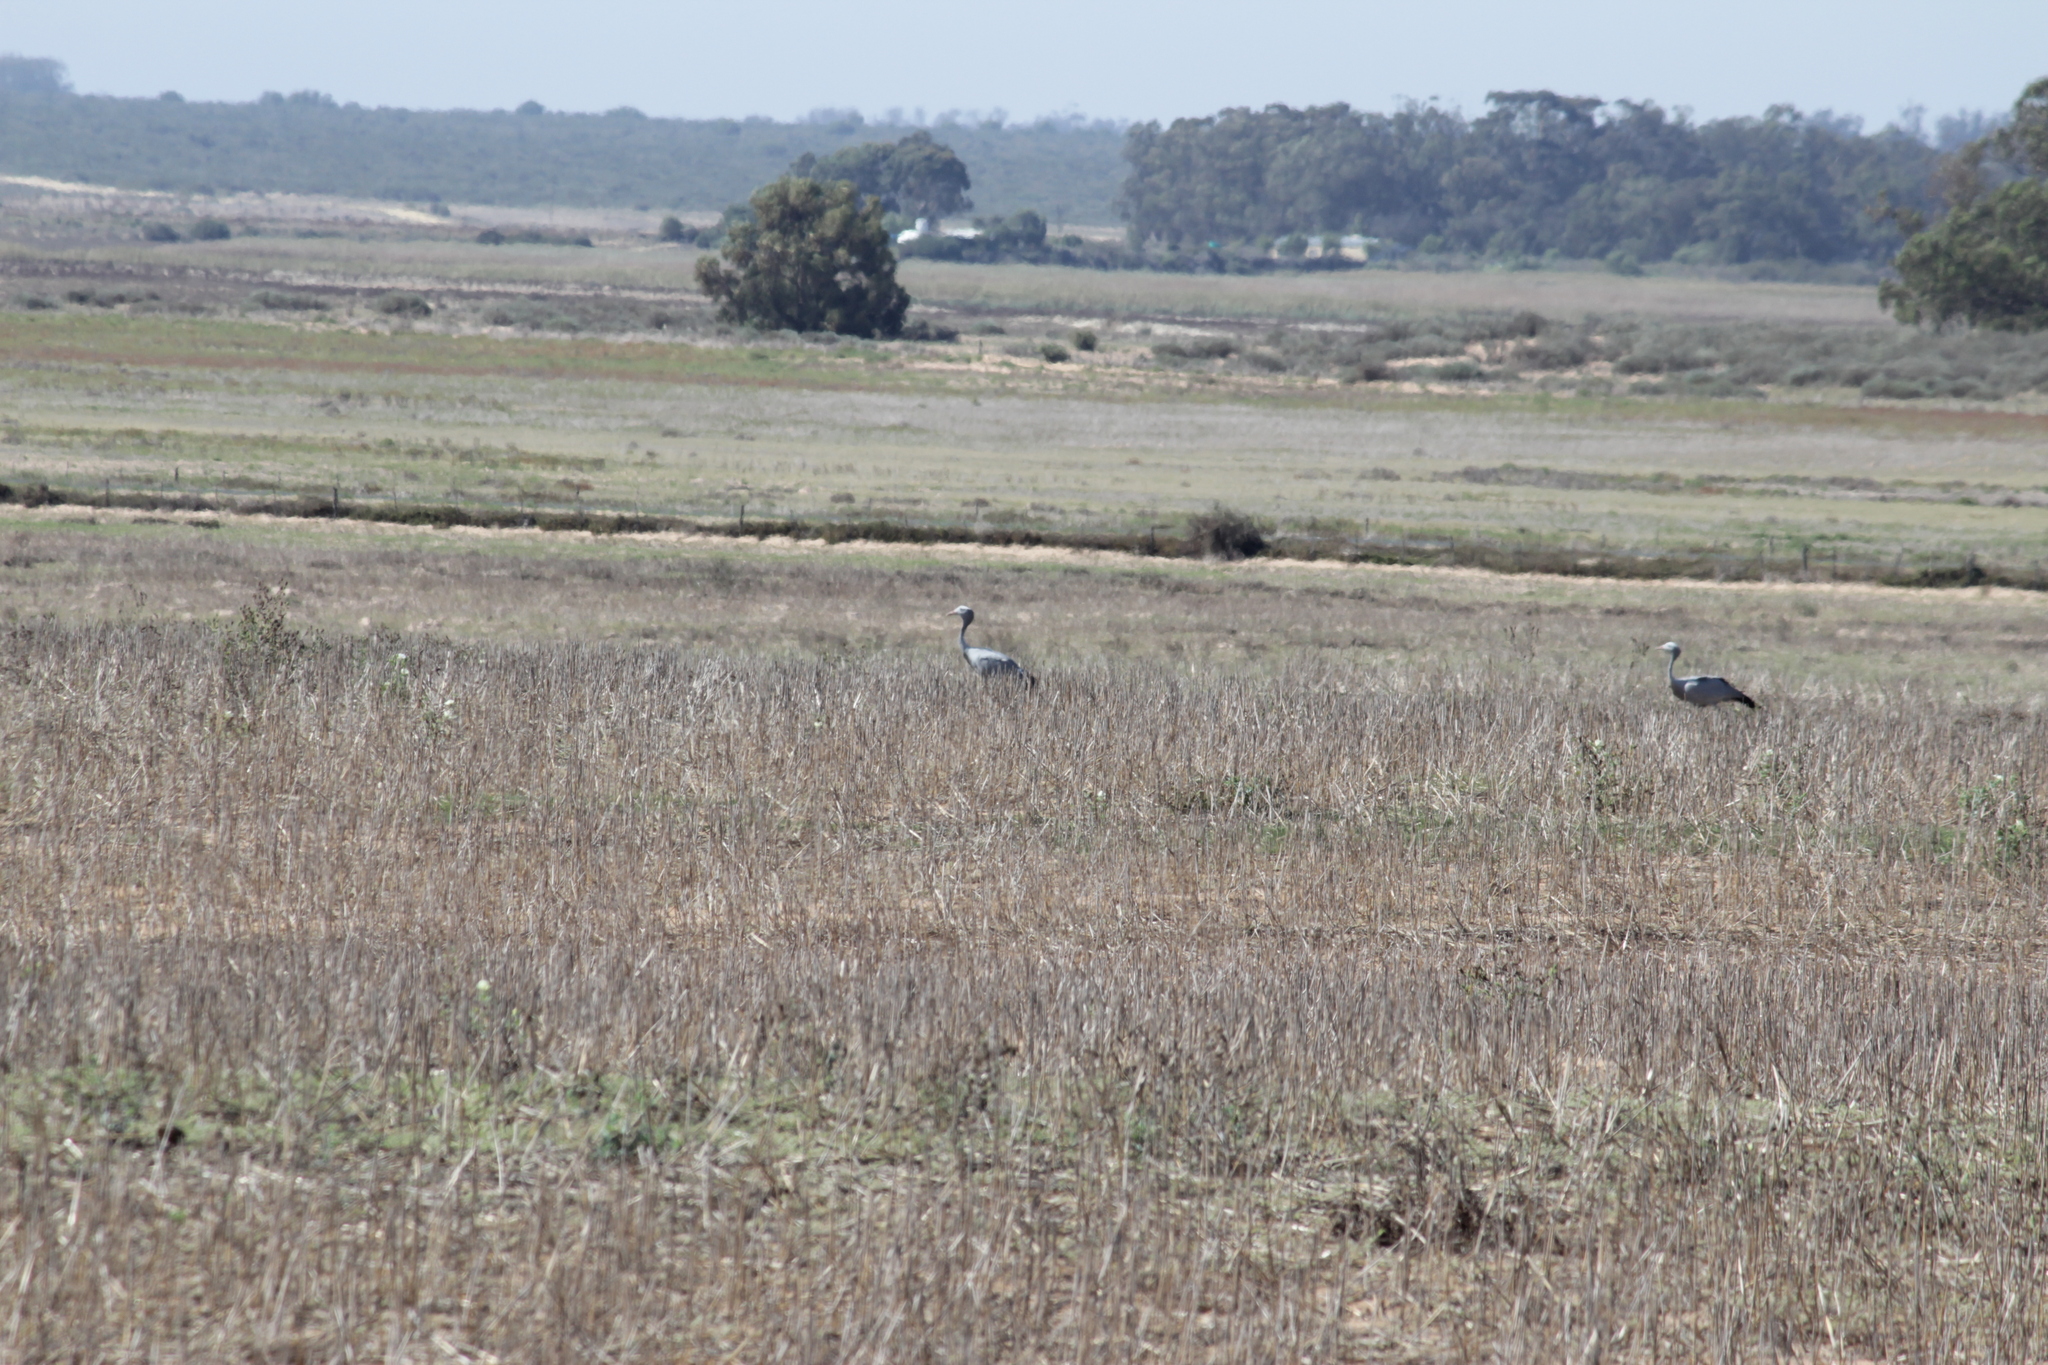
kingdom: Animalia
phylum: Chordata
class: Aves
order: Gruiformes
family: Gruidae
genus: Anthropoides
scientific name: Anthropoides paradiseus
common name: Blue crane
